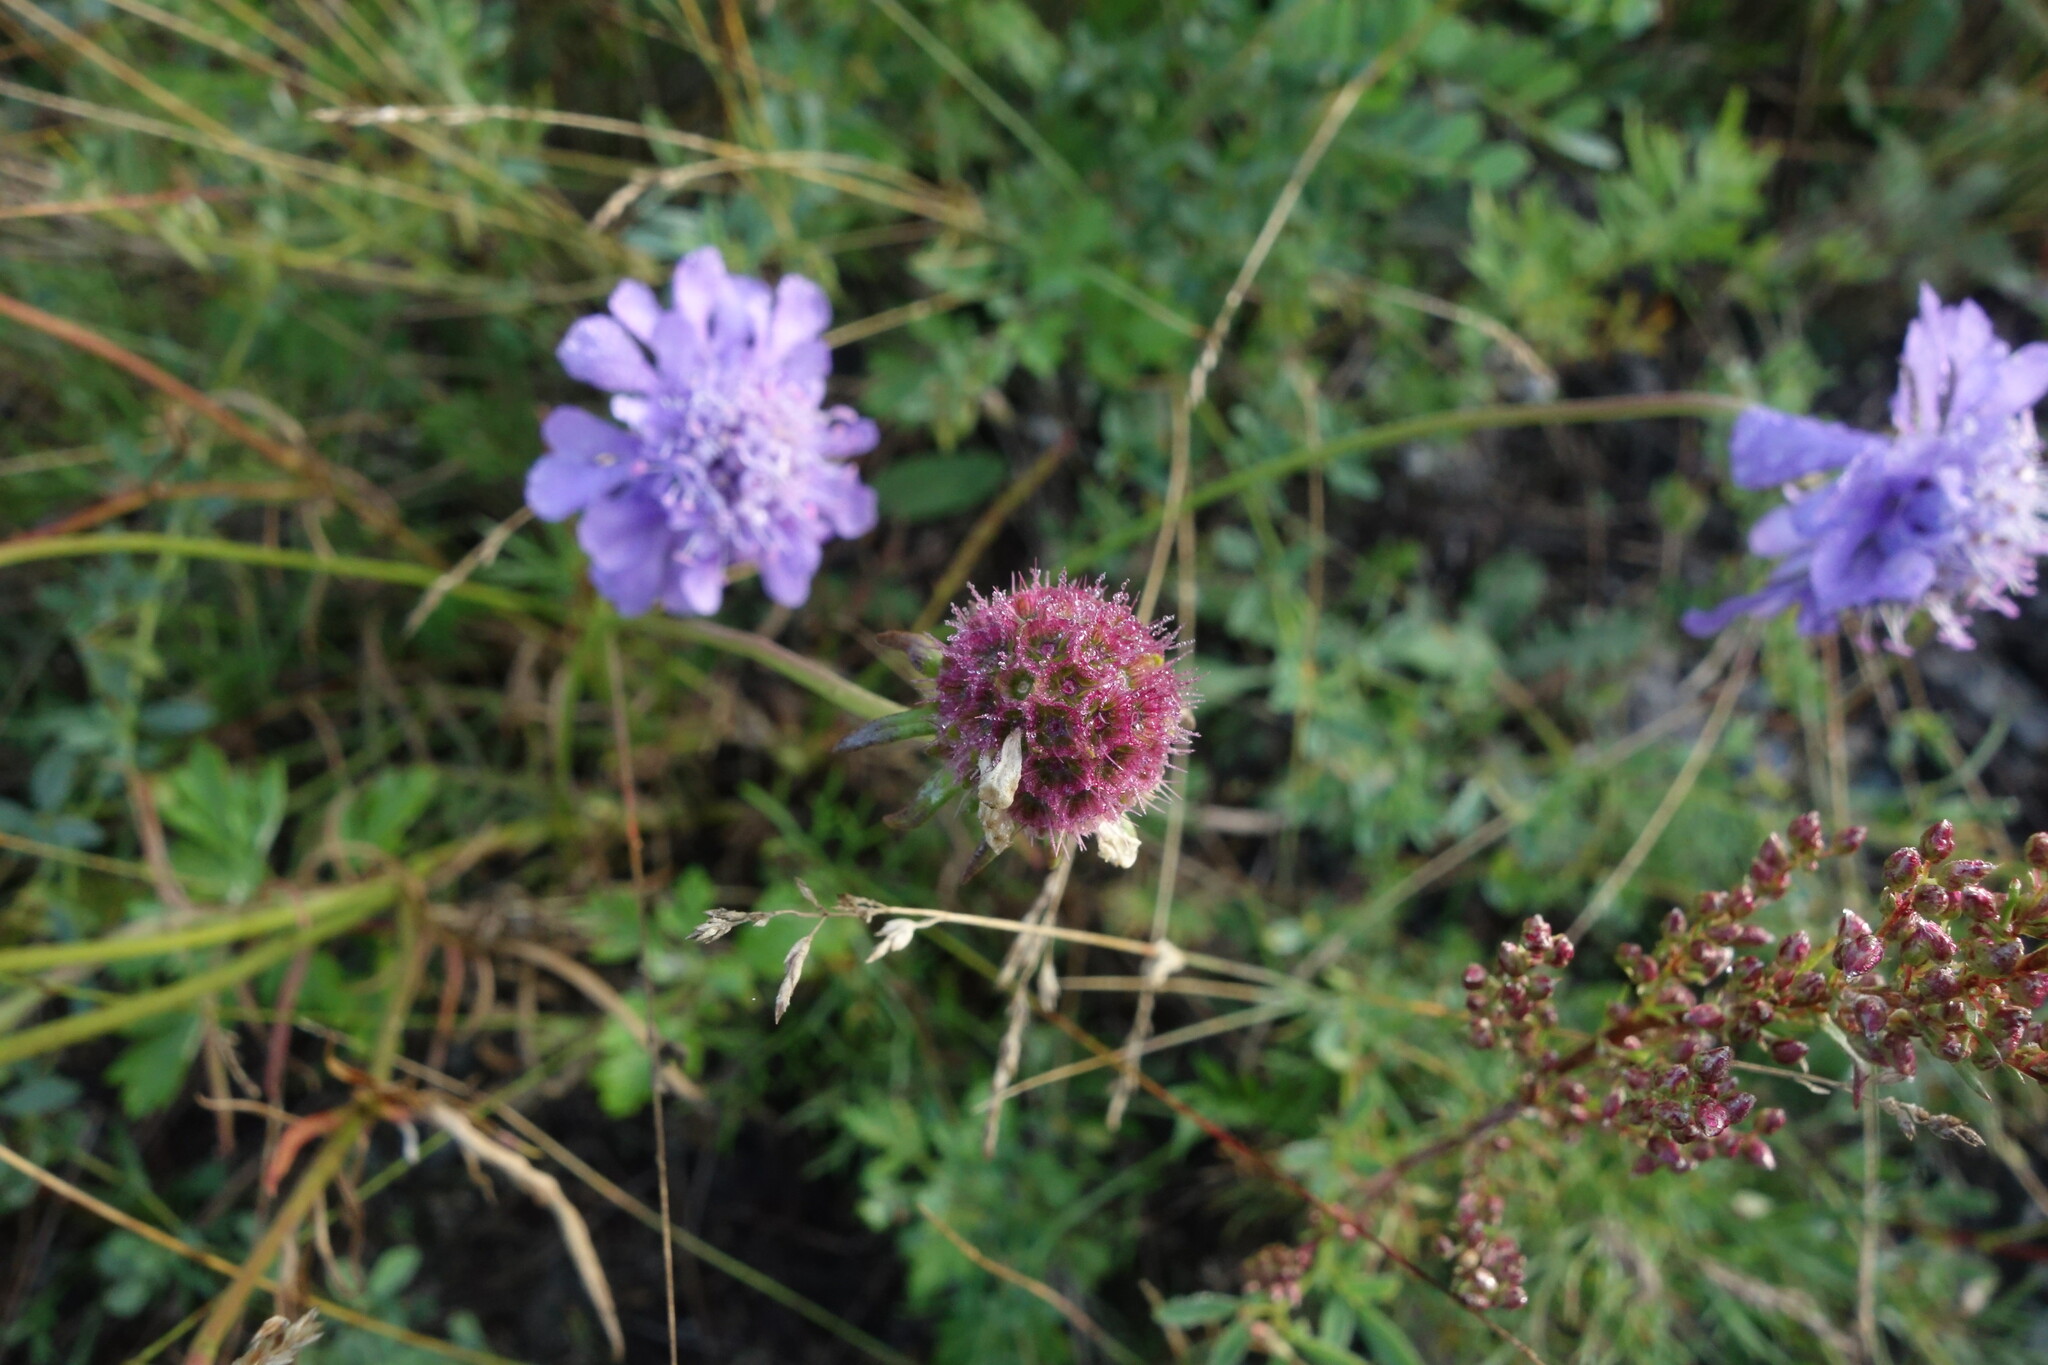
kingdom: Plantae
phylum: Tracheophyta
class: Magnoliopsida
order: Dipsacales
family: Caprifoliaceae
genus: Scabiosa
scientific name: Scabiosa comosa
